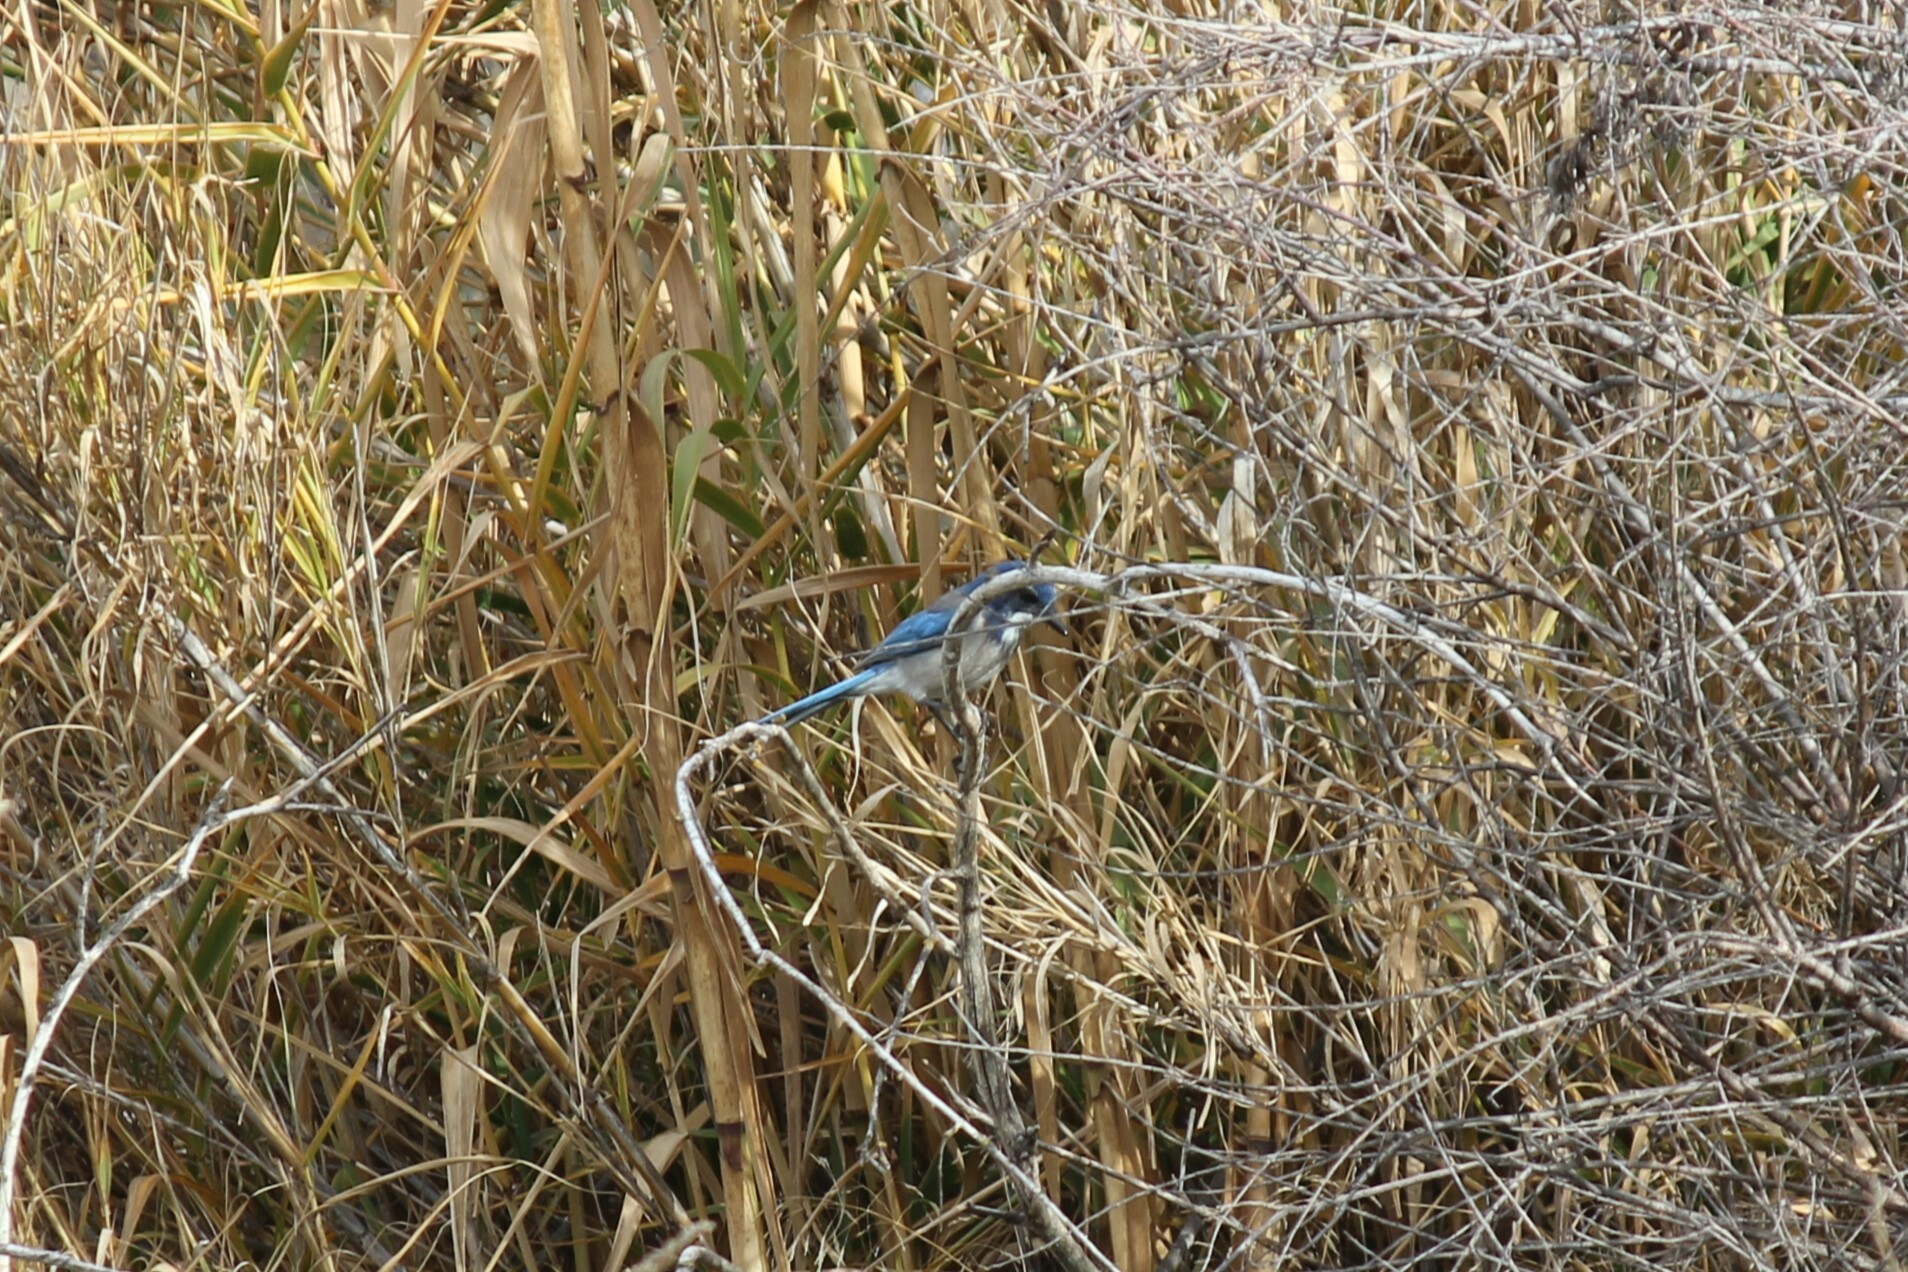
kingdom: Animalia
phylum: Chordata
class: Aves
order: Passeriformes
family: Corvidae
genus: Aphelocoma
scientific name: Aphelocoma californica
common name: California scrub-jay
